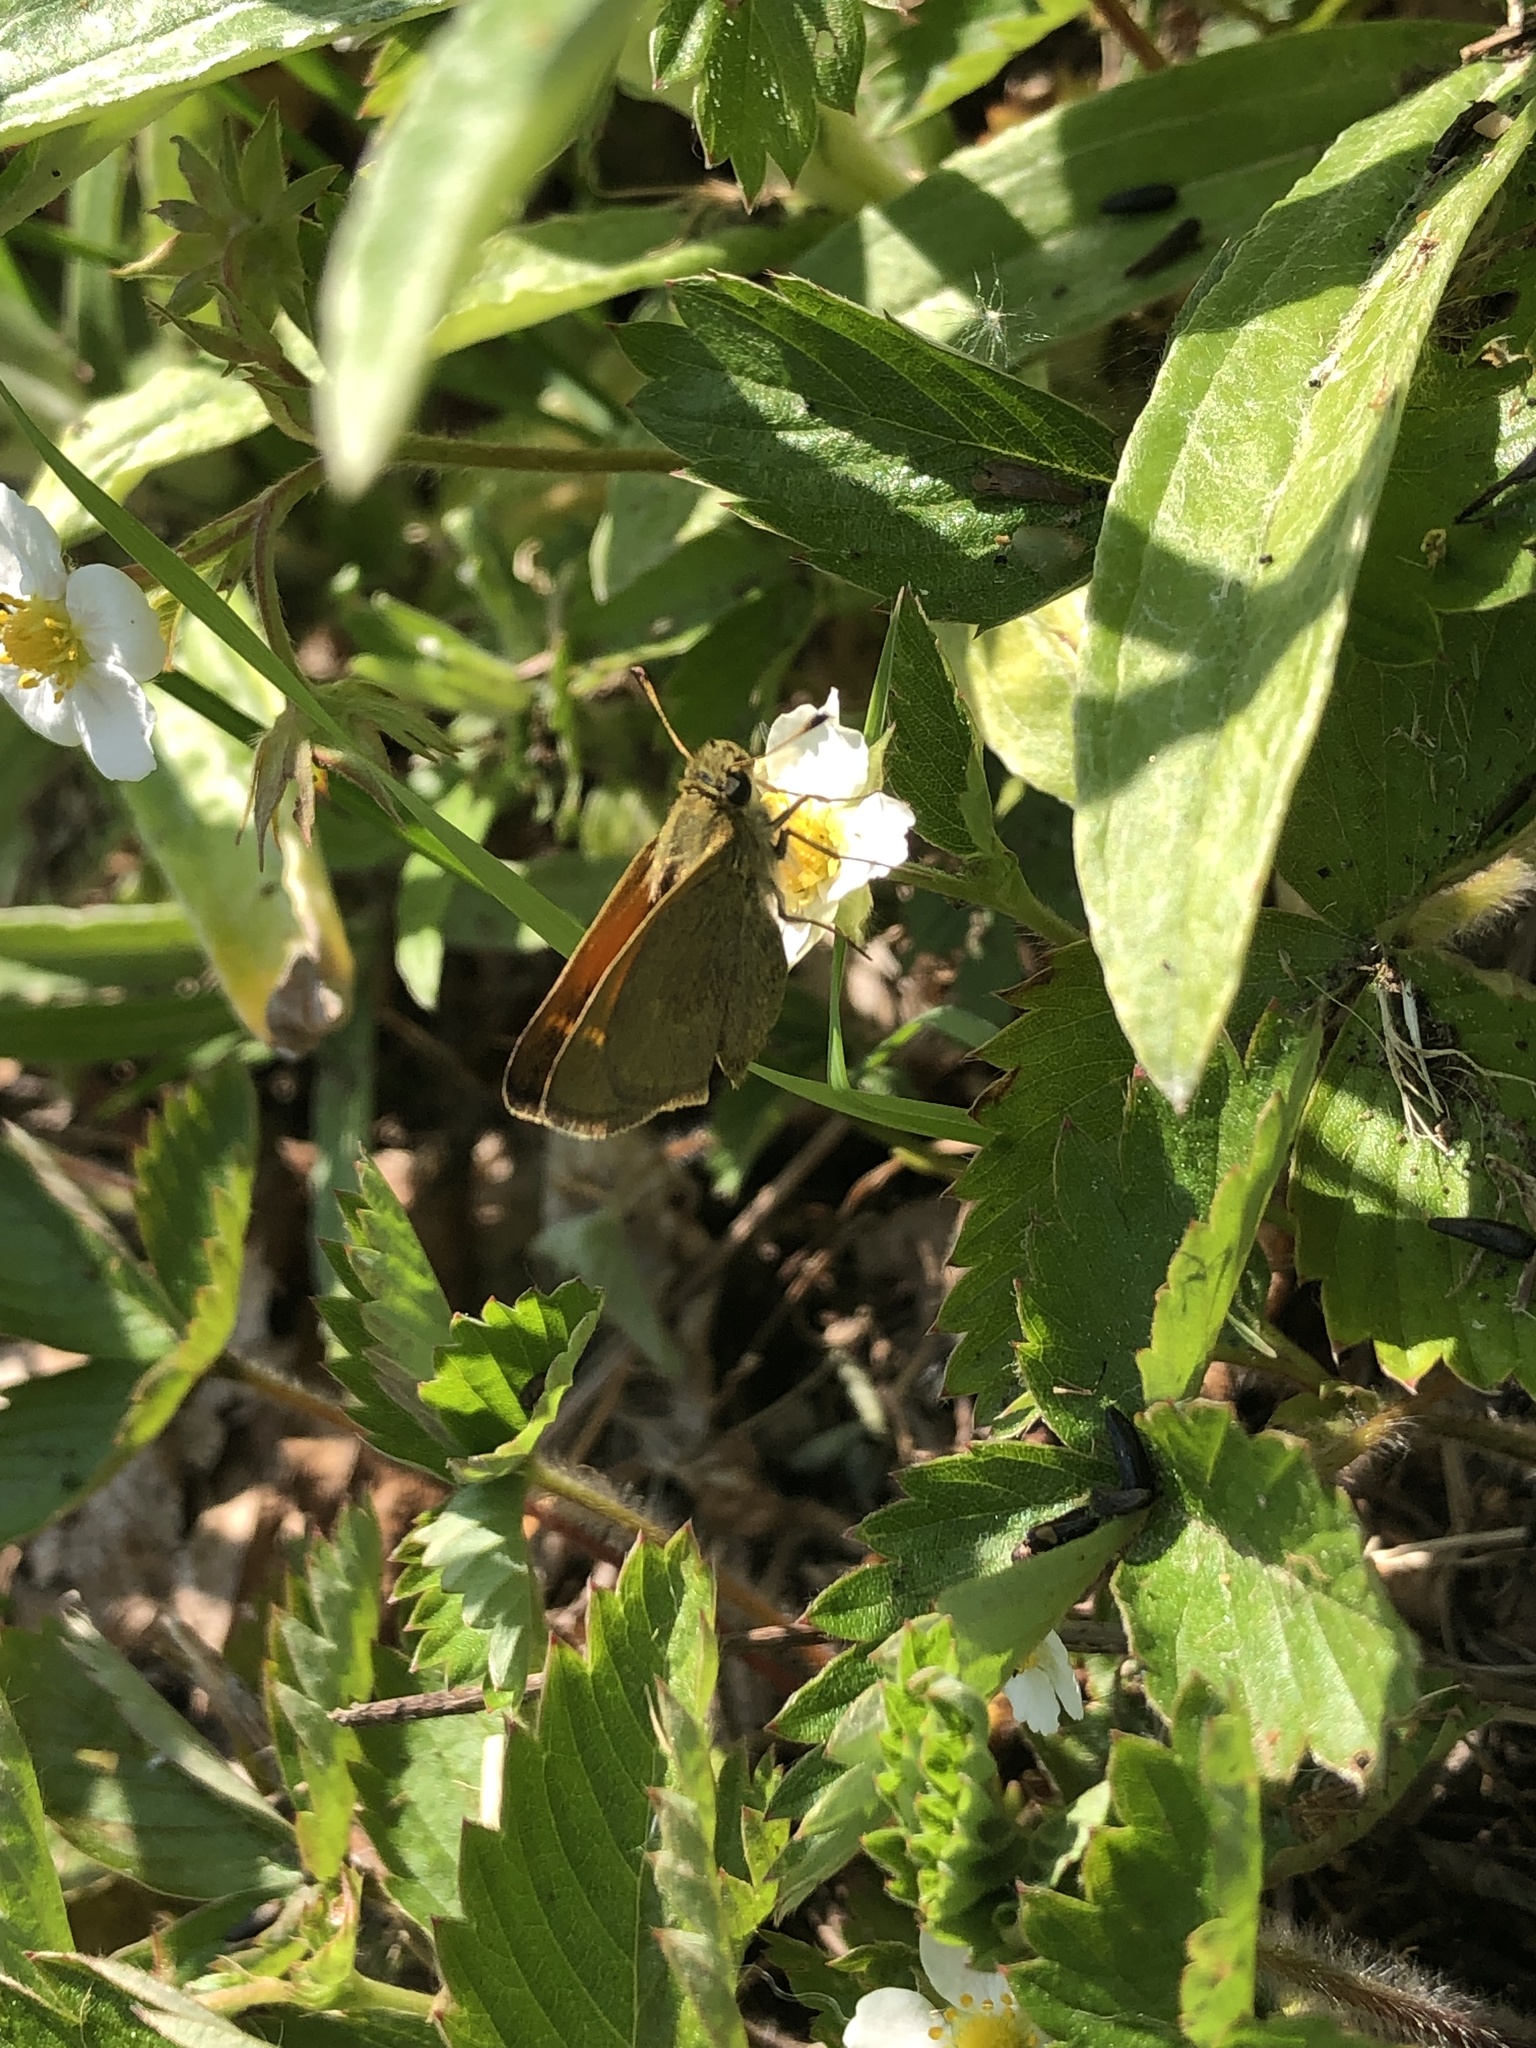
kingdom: Animalia
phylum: Arthropoda
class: Insecta
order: Lepidoptera
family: Hesperiidae
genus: Polites
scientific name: Polites themistocles
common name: Tawny-edged skipper
